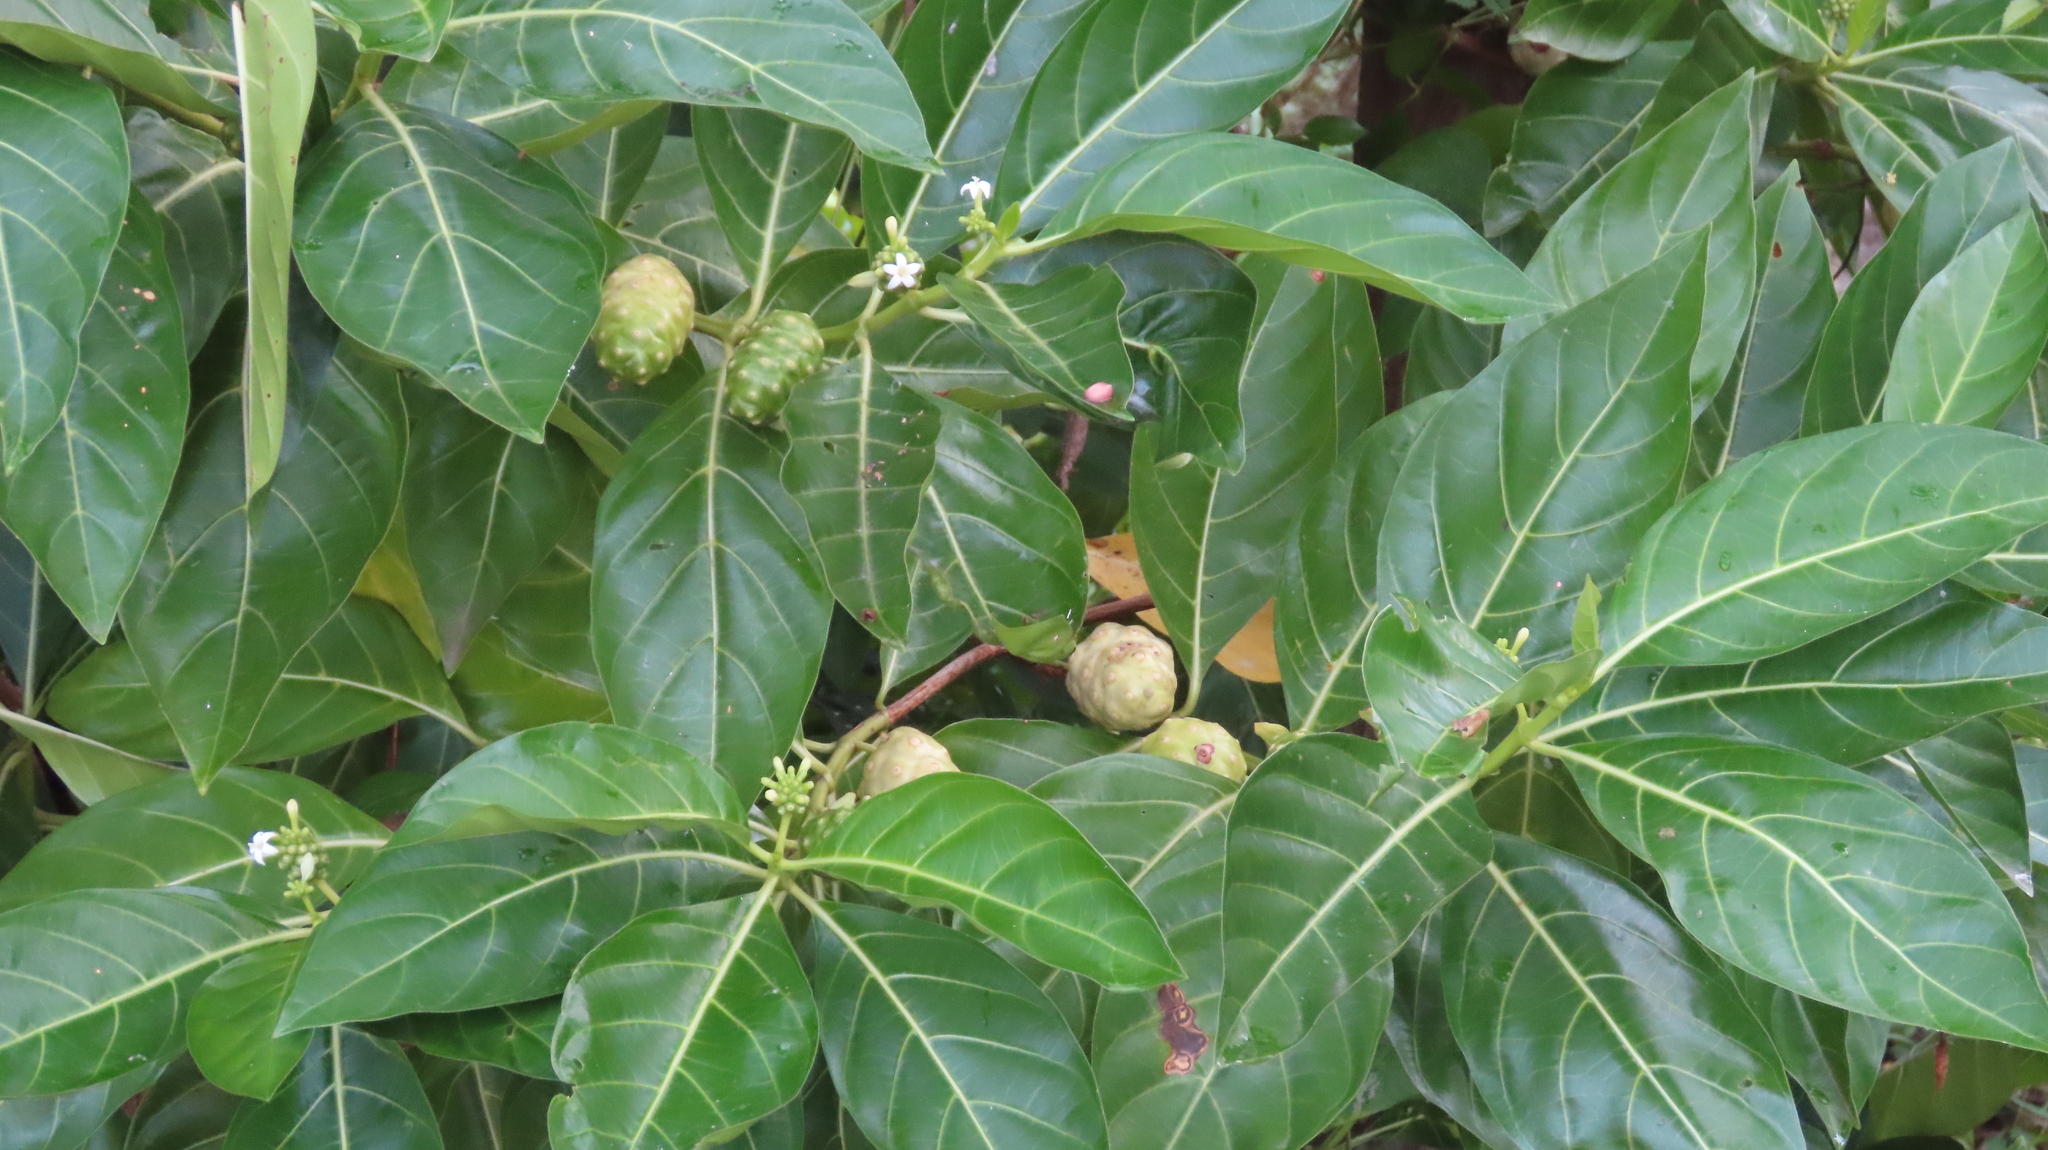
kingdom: Plantae
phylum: Tracheophyta
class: Magnoliopsida
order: Gentianales
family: Rubiaceae
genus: Morinda
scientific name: Morinda citrifolia
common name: Indian-mulberry
